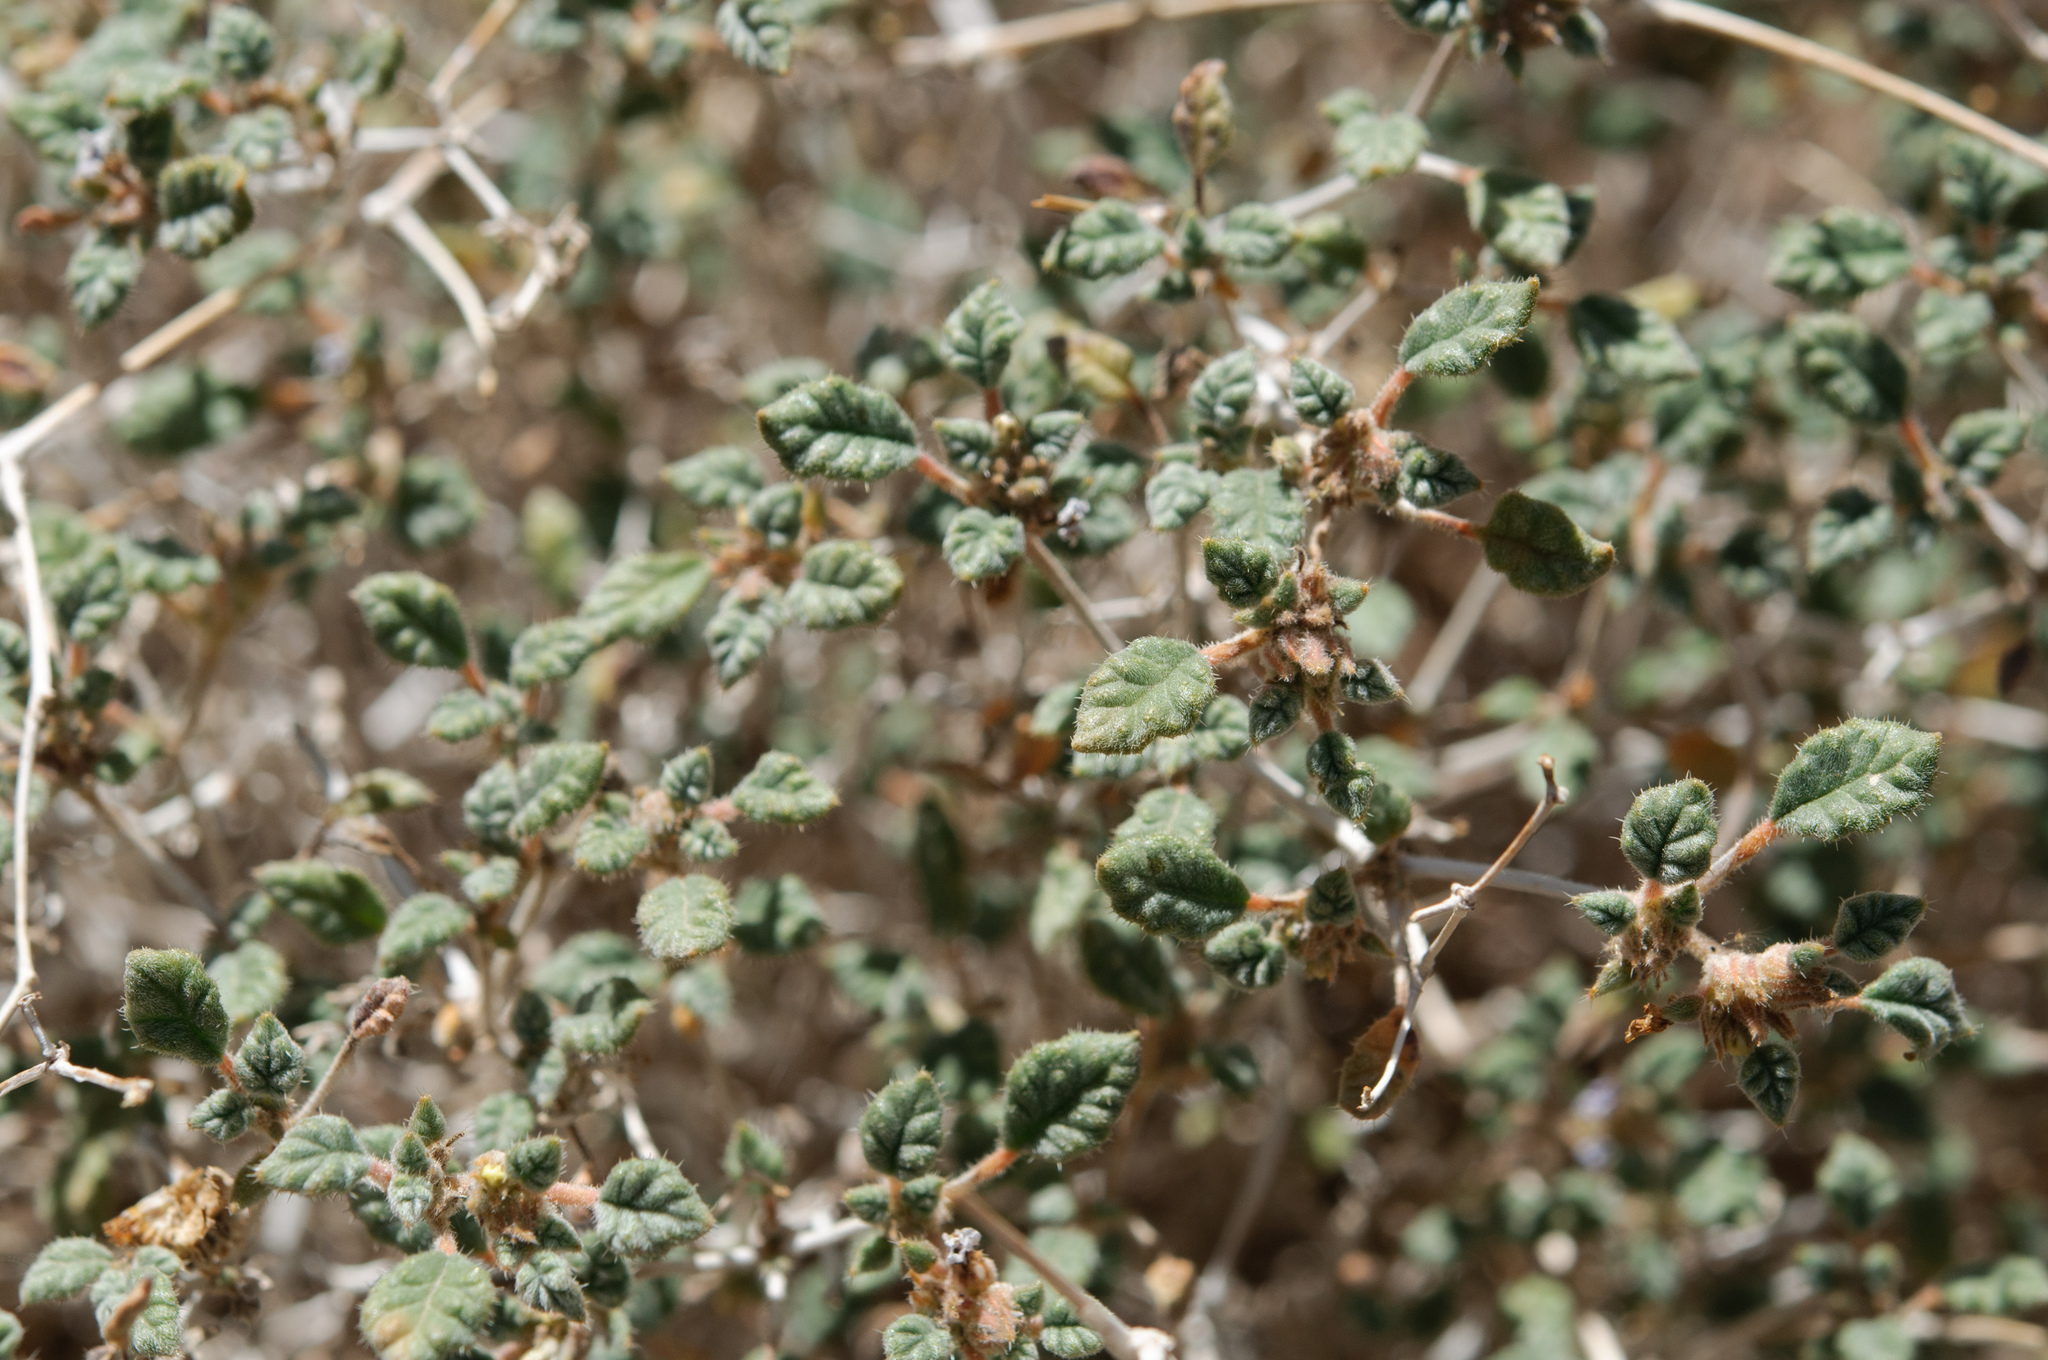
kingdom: Plantae
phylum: Tracheophyta
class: Magnoliopsida
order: Boraginales
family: Ehretiaceae
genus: Tiquilia
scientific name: Tiquilia palmeri
